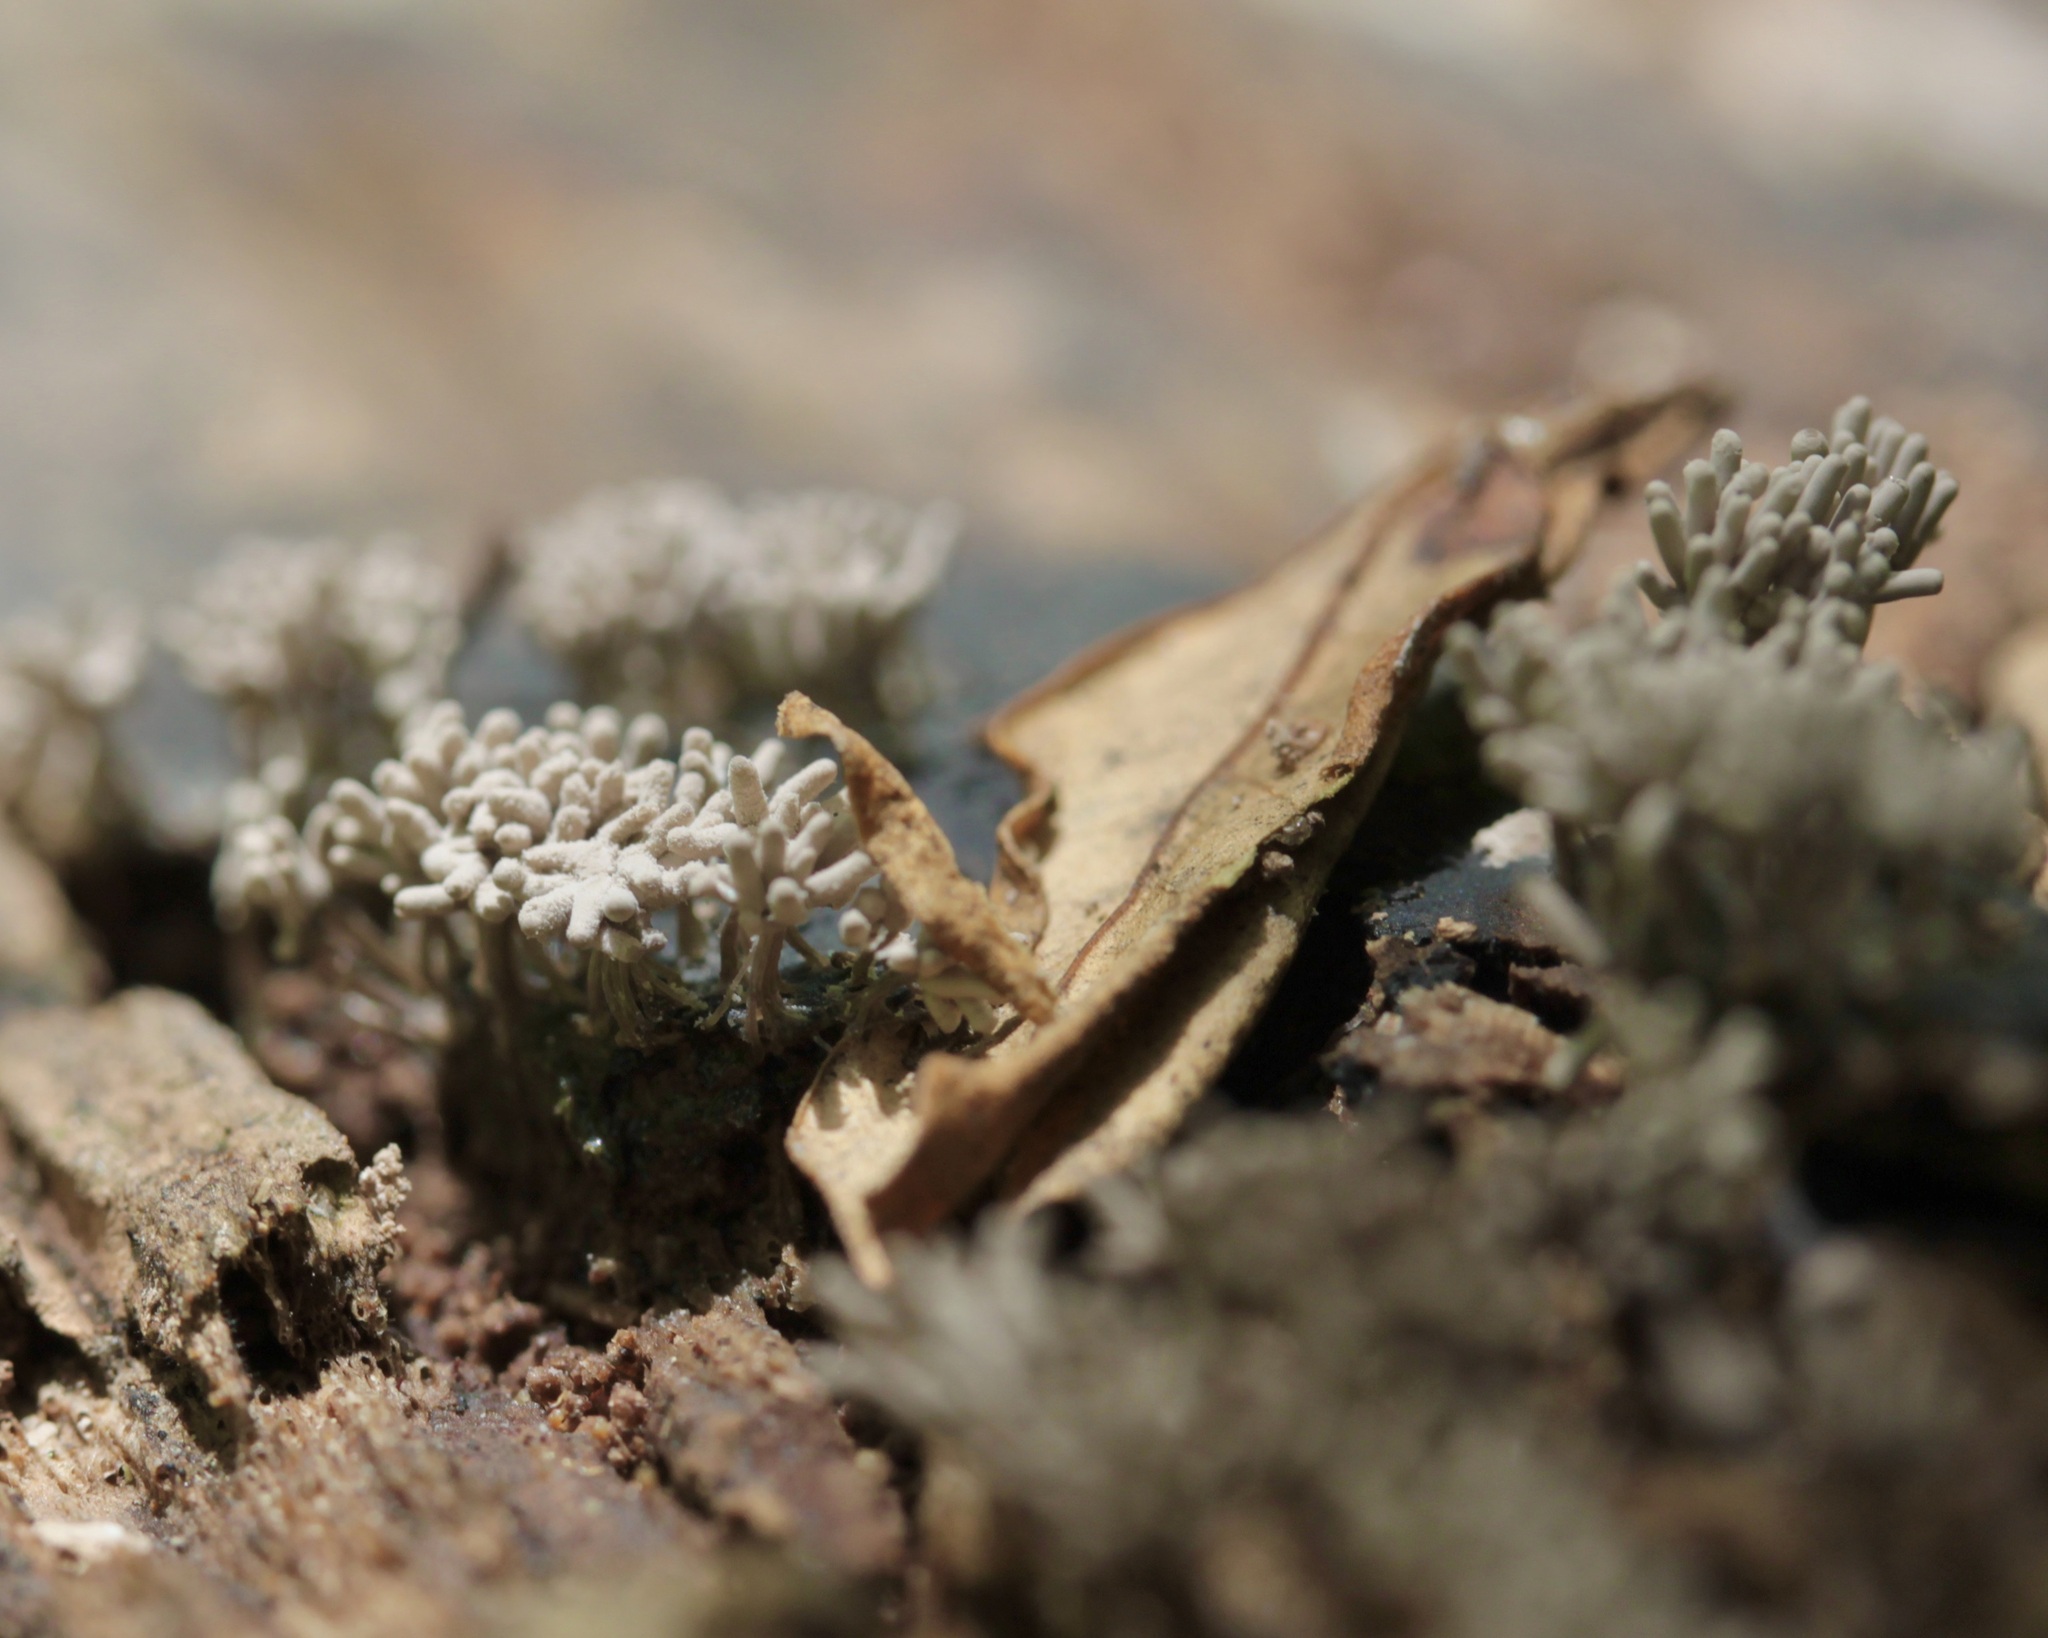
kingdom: Protozoa
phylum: Mycetozoa
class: Myxomycetes
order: Trichiales
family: Arcyriaceae
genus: Arcyria
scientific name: Arcyria cinerea
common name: White carnival candy slime mold
